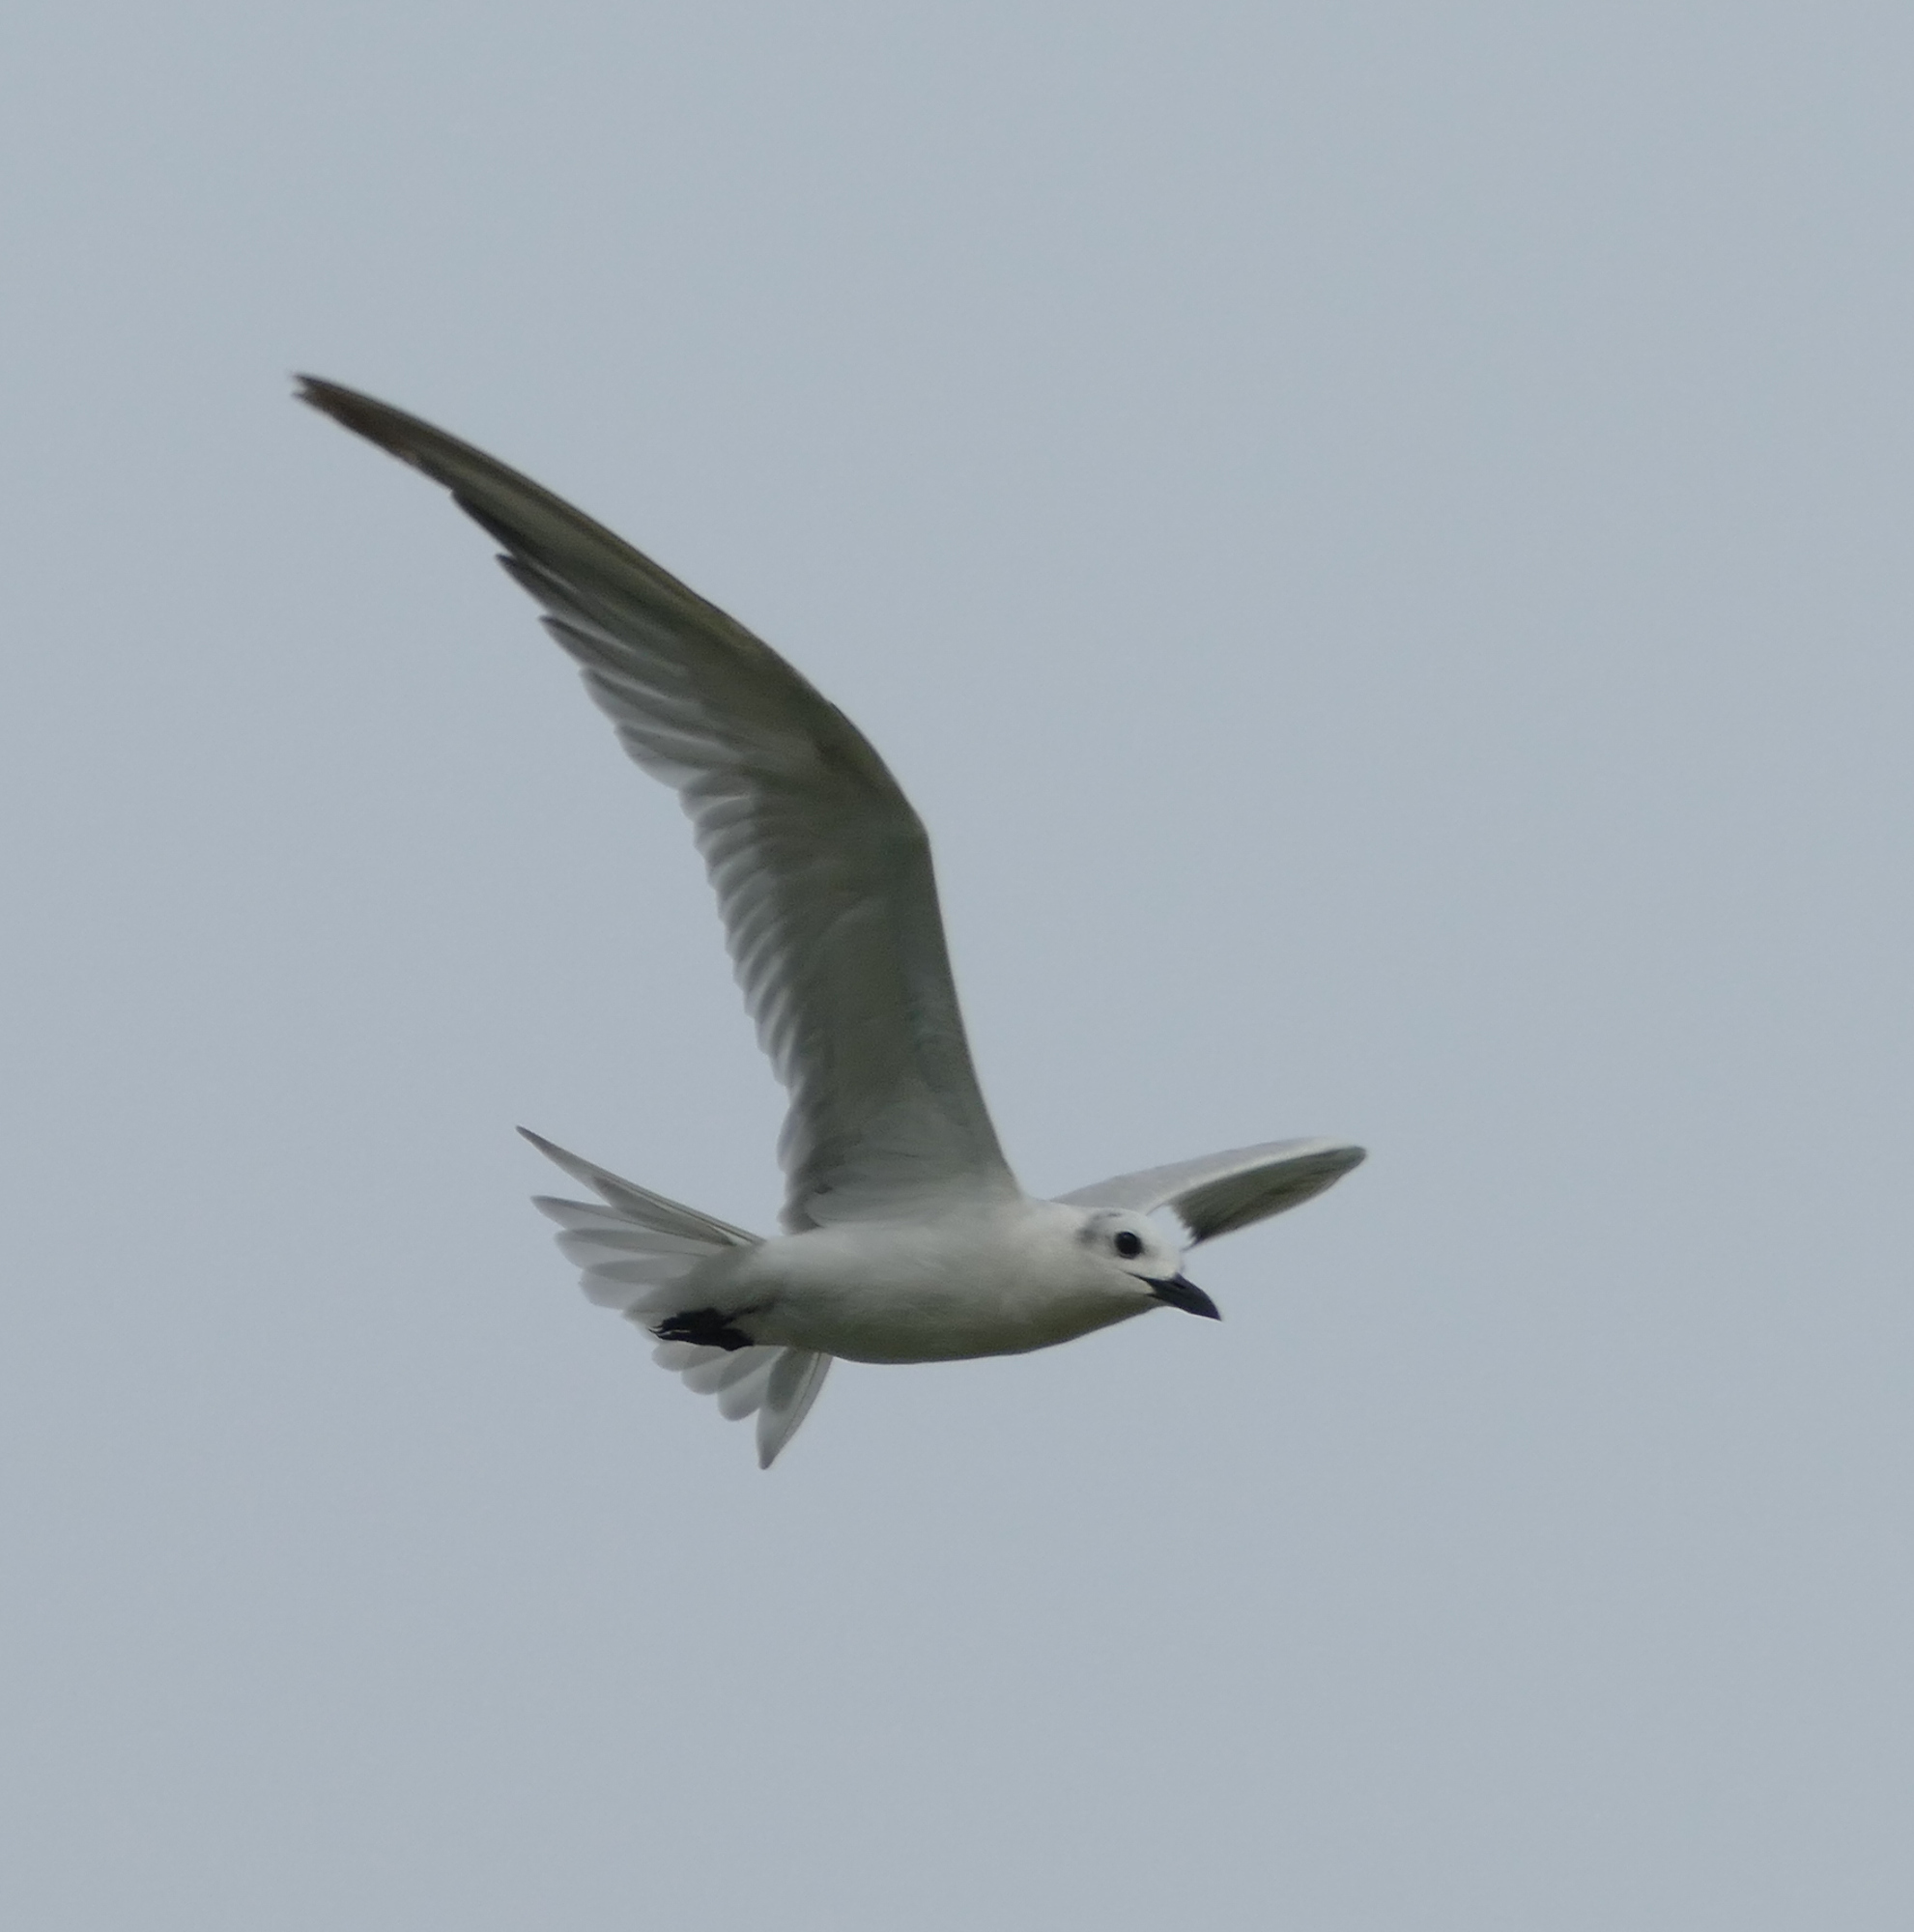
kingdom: Animalia
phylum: Chordata
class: Aves
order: Charadriiformes
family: Laridae
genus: Gelochelidon
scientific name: Gelochelidon nilotica
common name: Gull-billed tern
